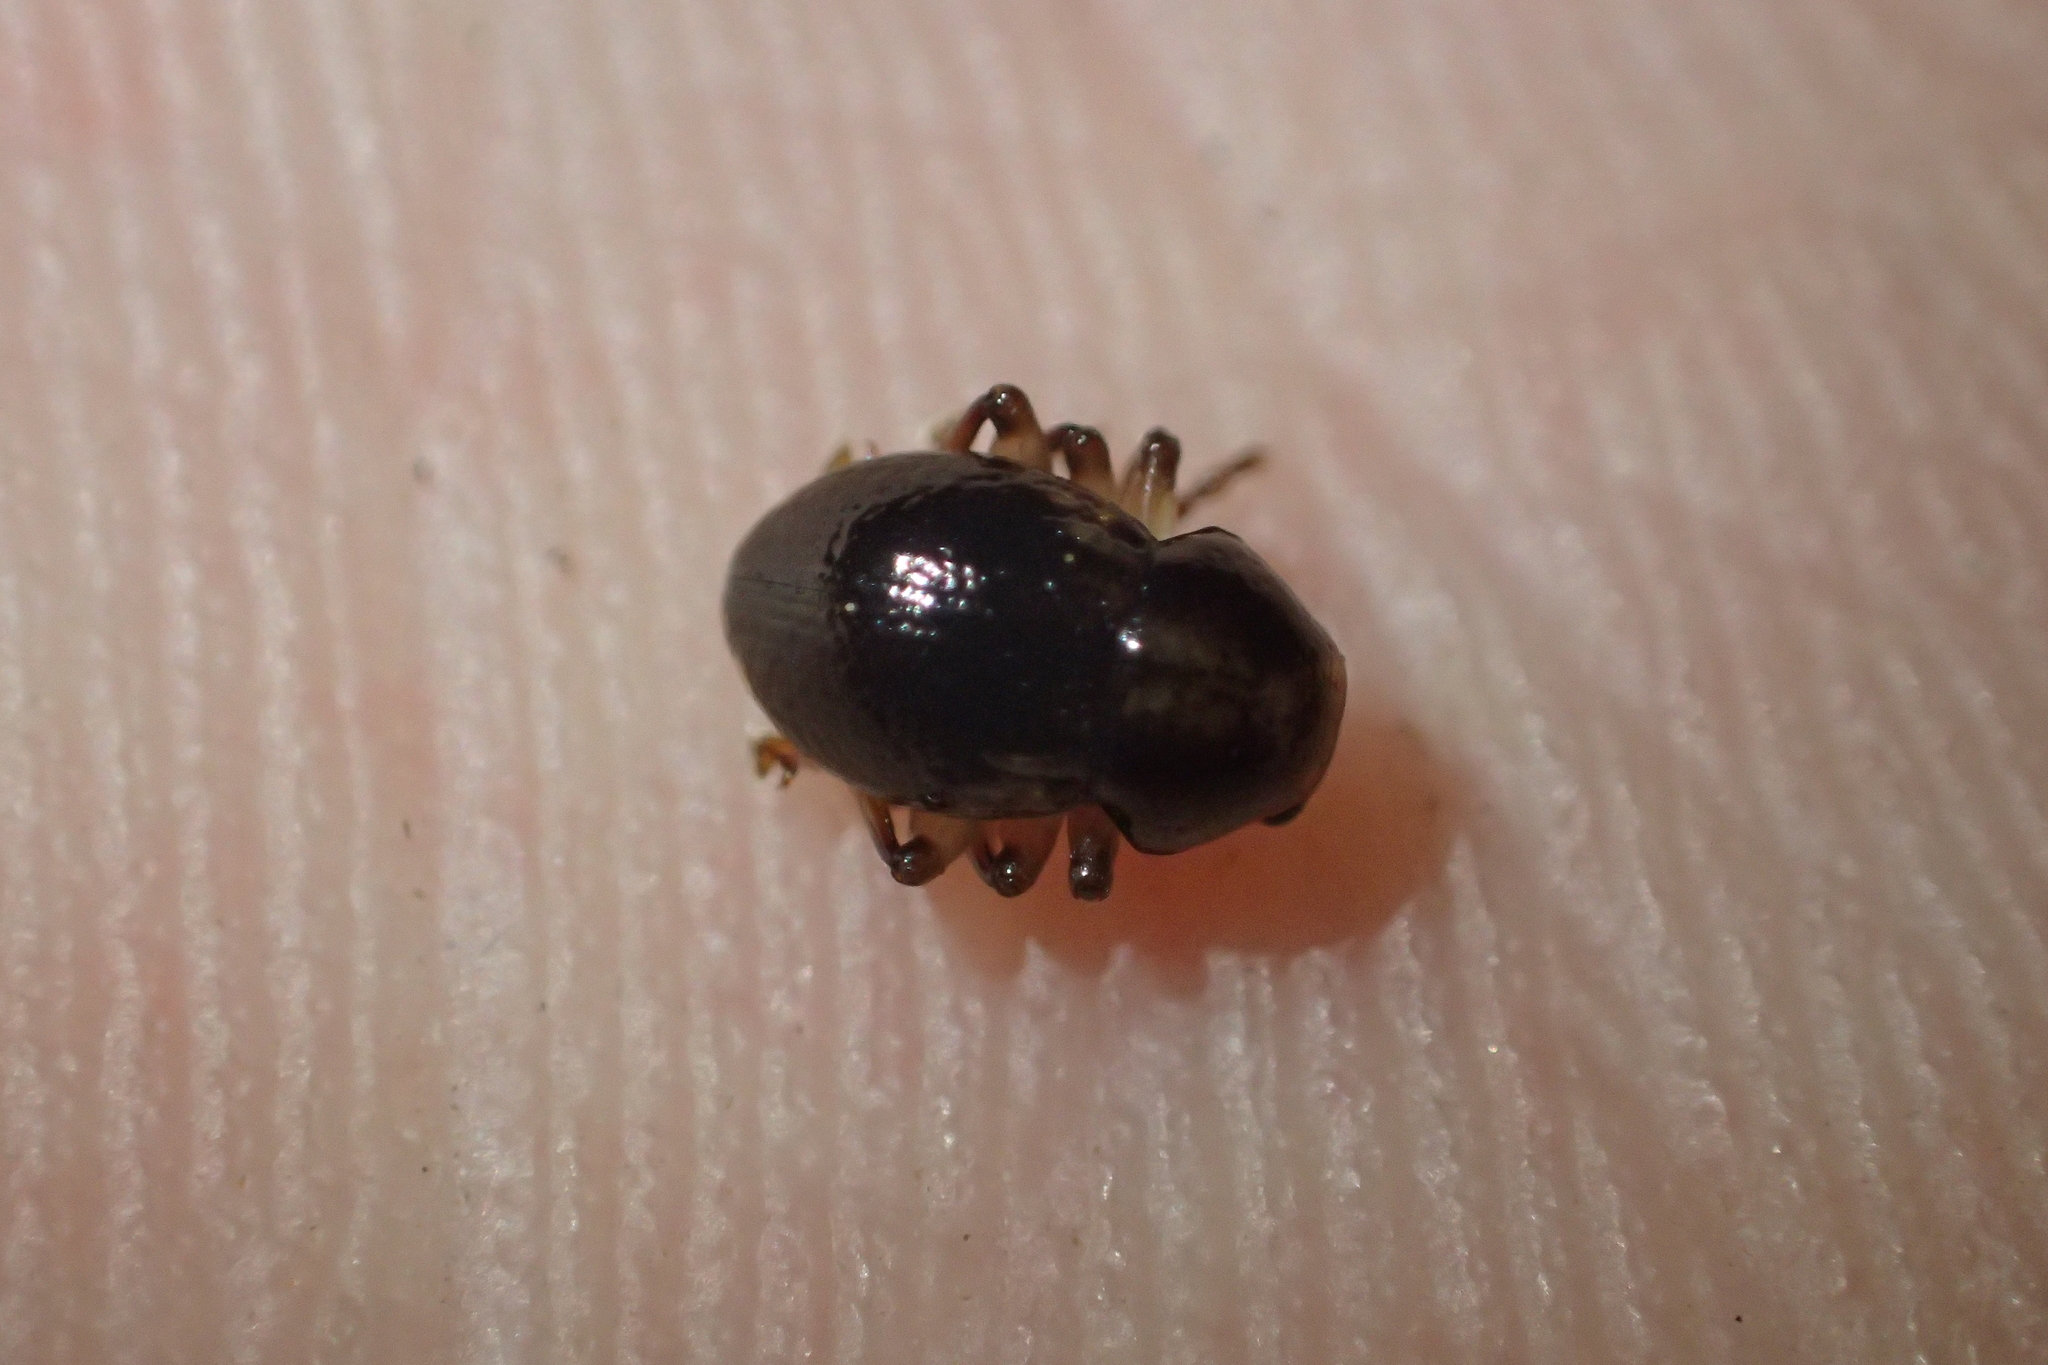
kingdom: Animalia
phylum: Arthropoda
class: Insecta
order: Coleoptera
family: Chrysomelidae
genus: Peniticus
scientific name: Peniticus suffusus
